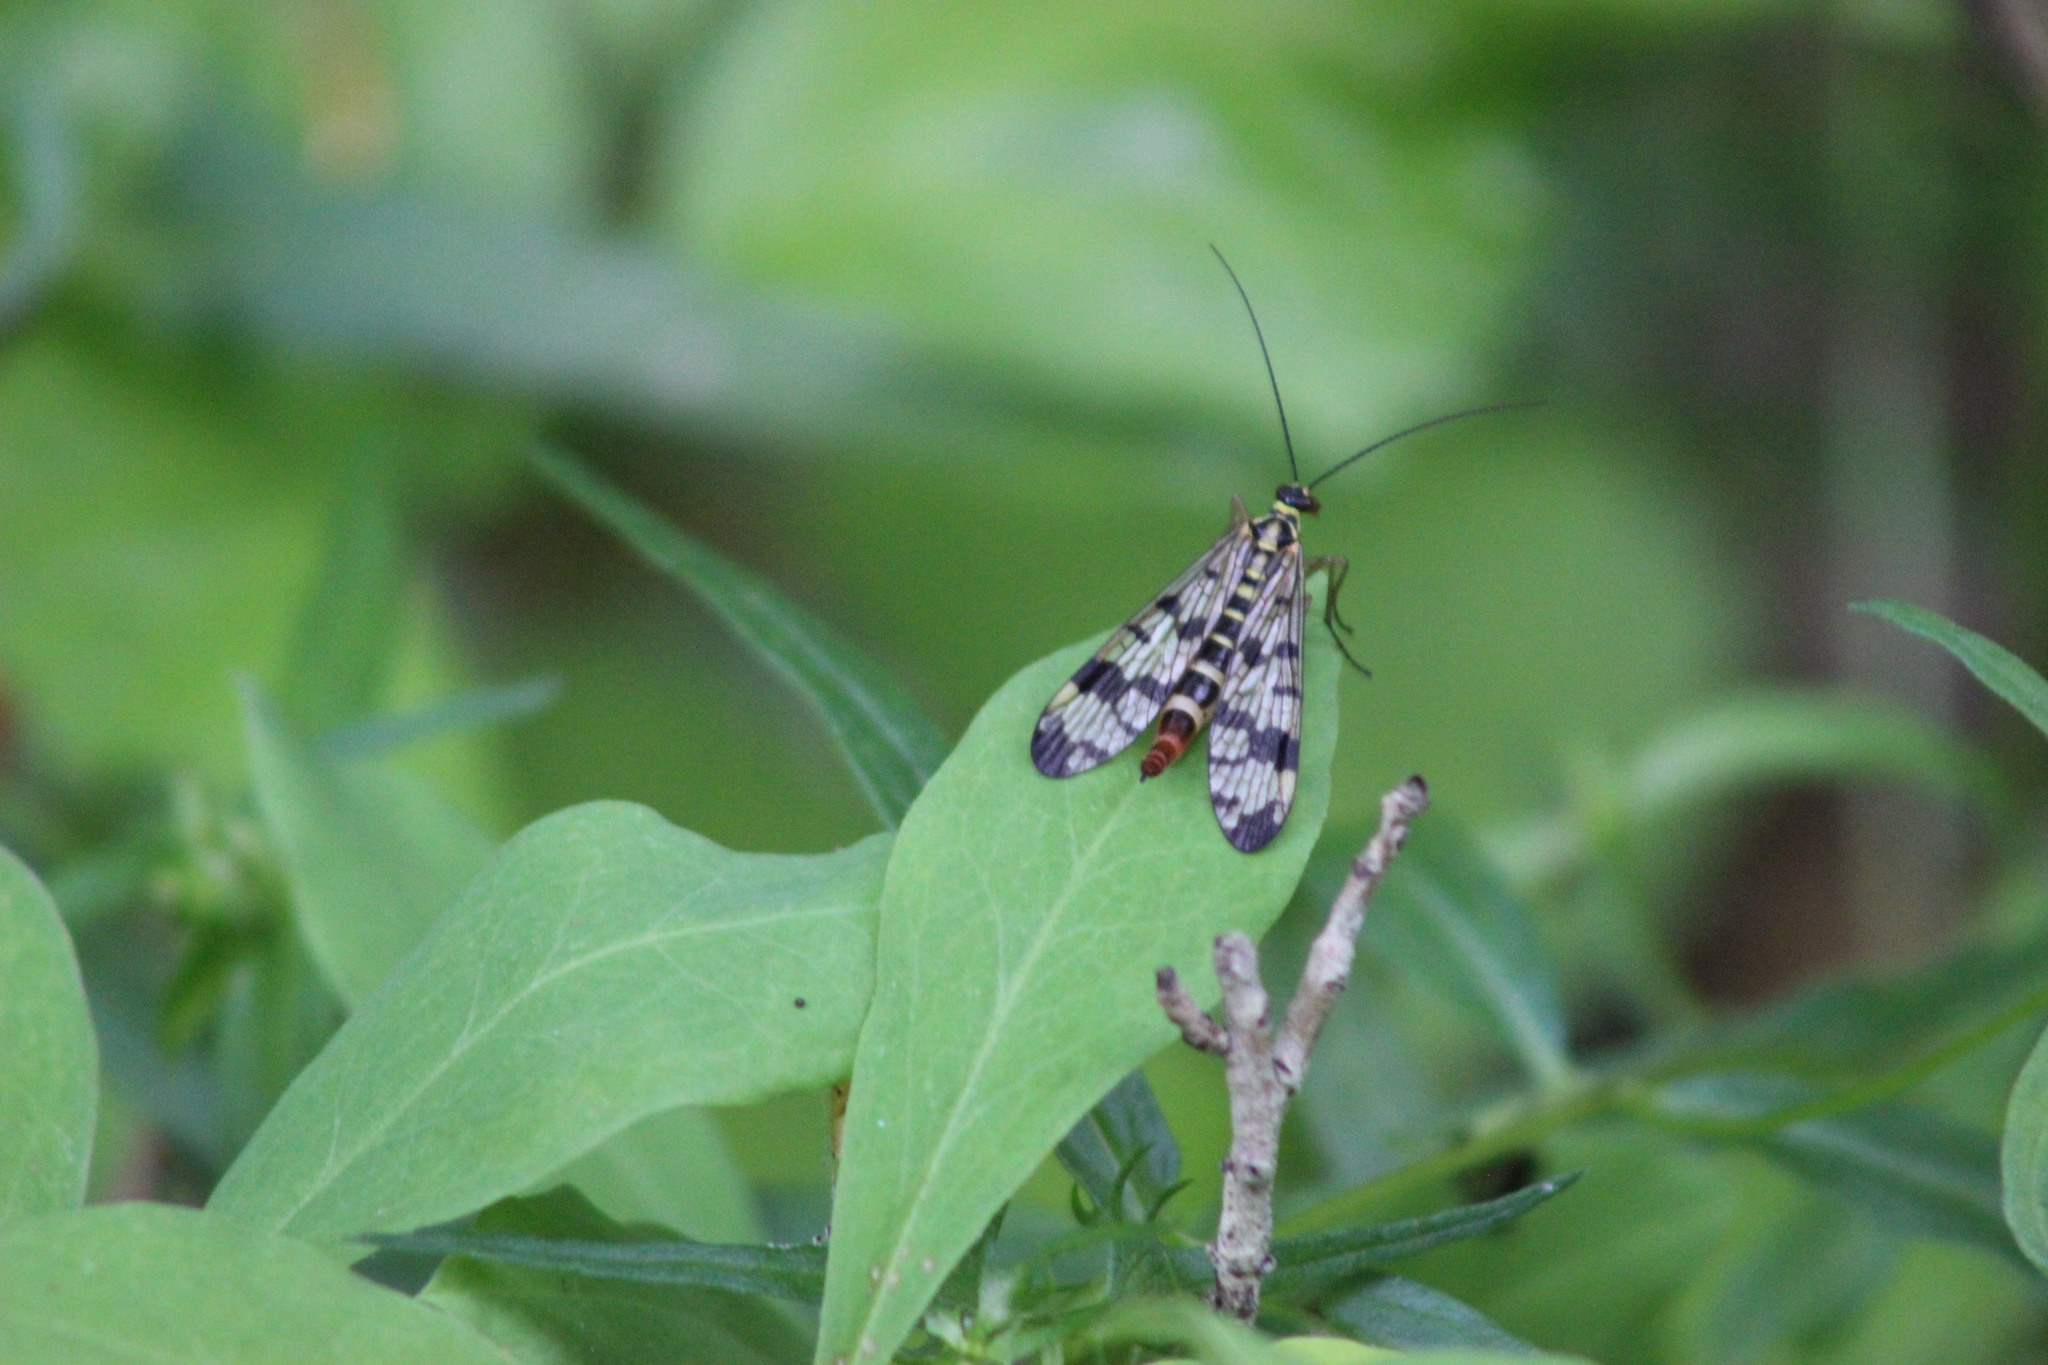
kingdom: Animalia
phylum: Arthropoda
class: Insecta
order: Mecoptera
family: Panorpidae
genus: Panorpa
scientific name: Panorpa communis
